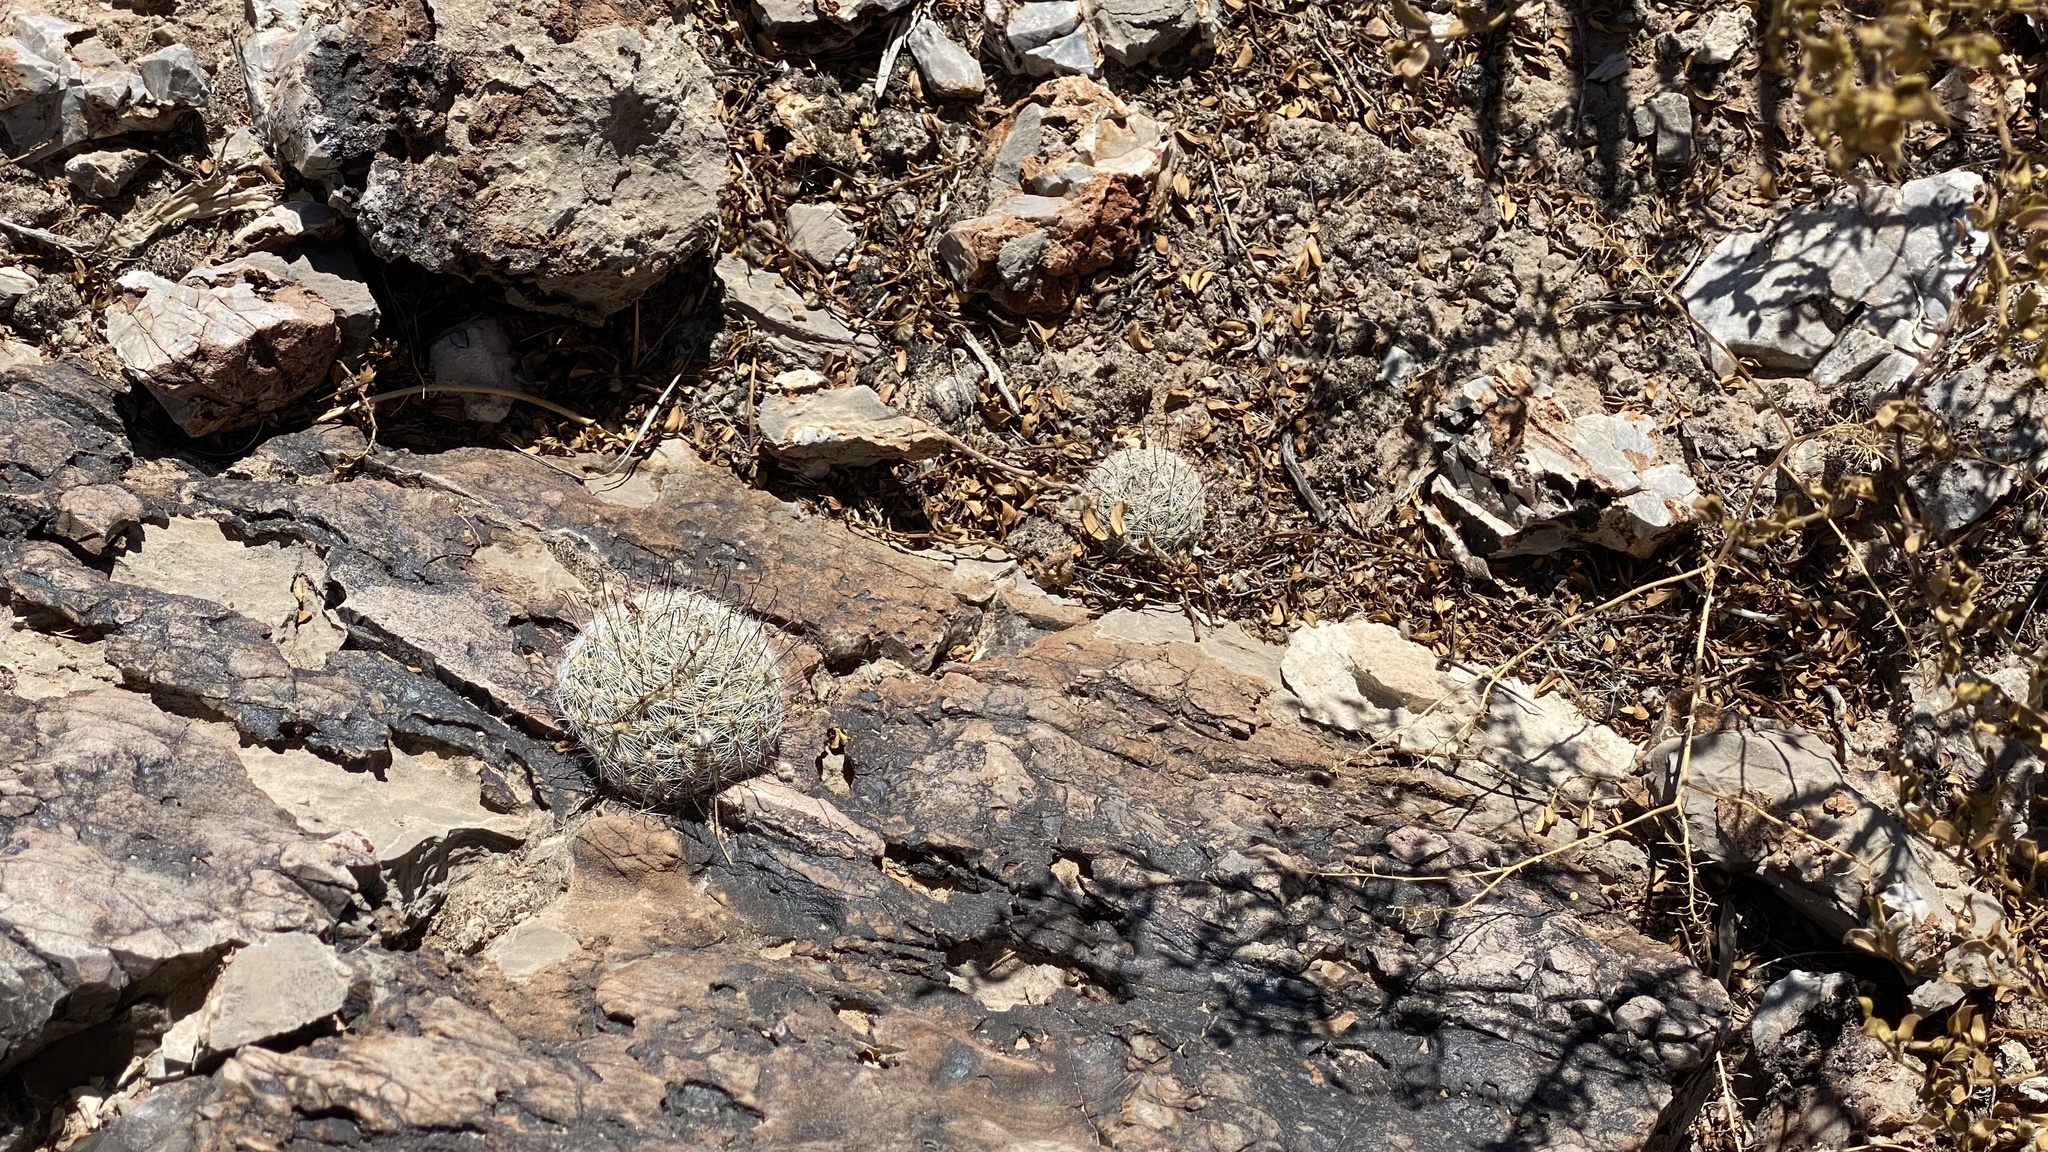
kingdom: Plantae
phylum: Tracheophyta
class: Magnoliopsida
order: Caryophyllales
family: Cactaceae
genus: Cochemiea
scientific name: Cochemiea grahamii
